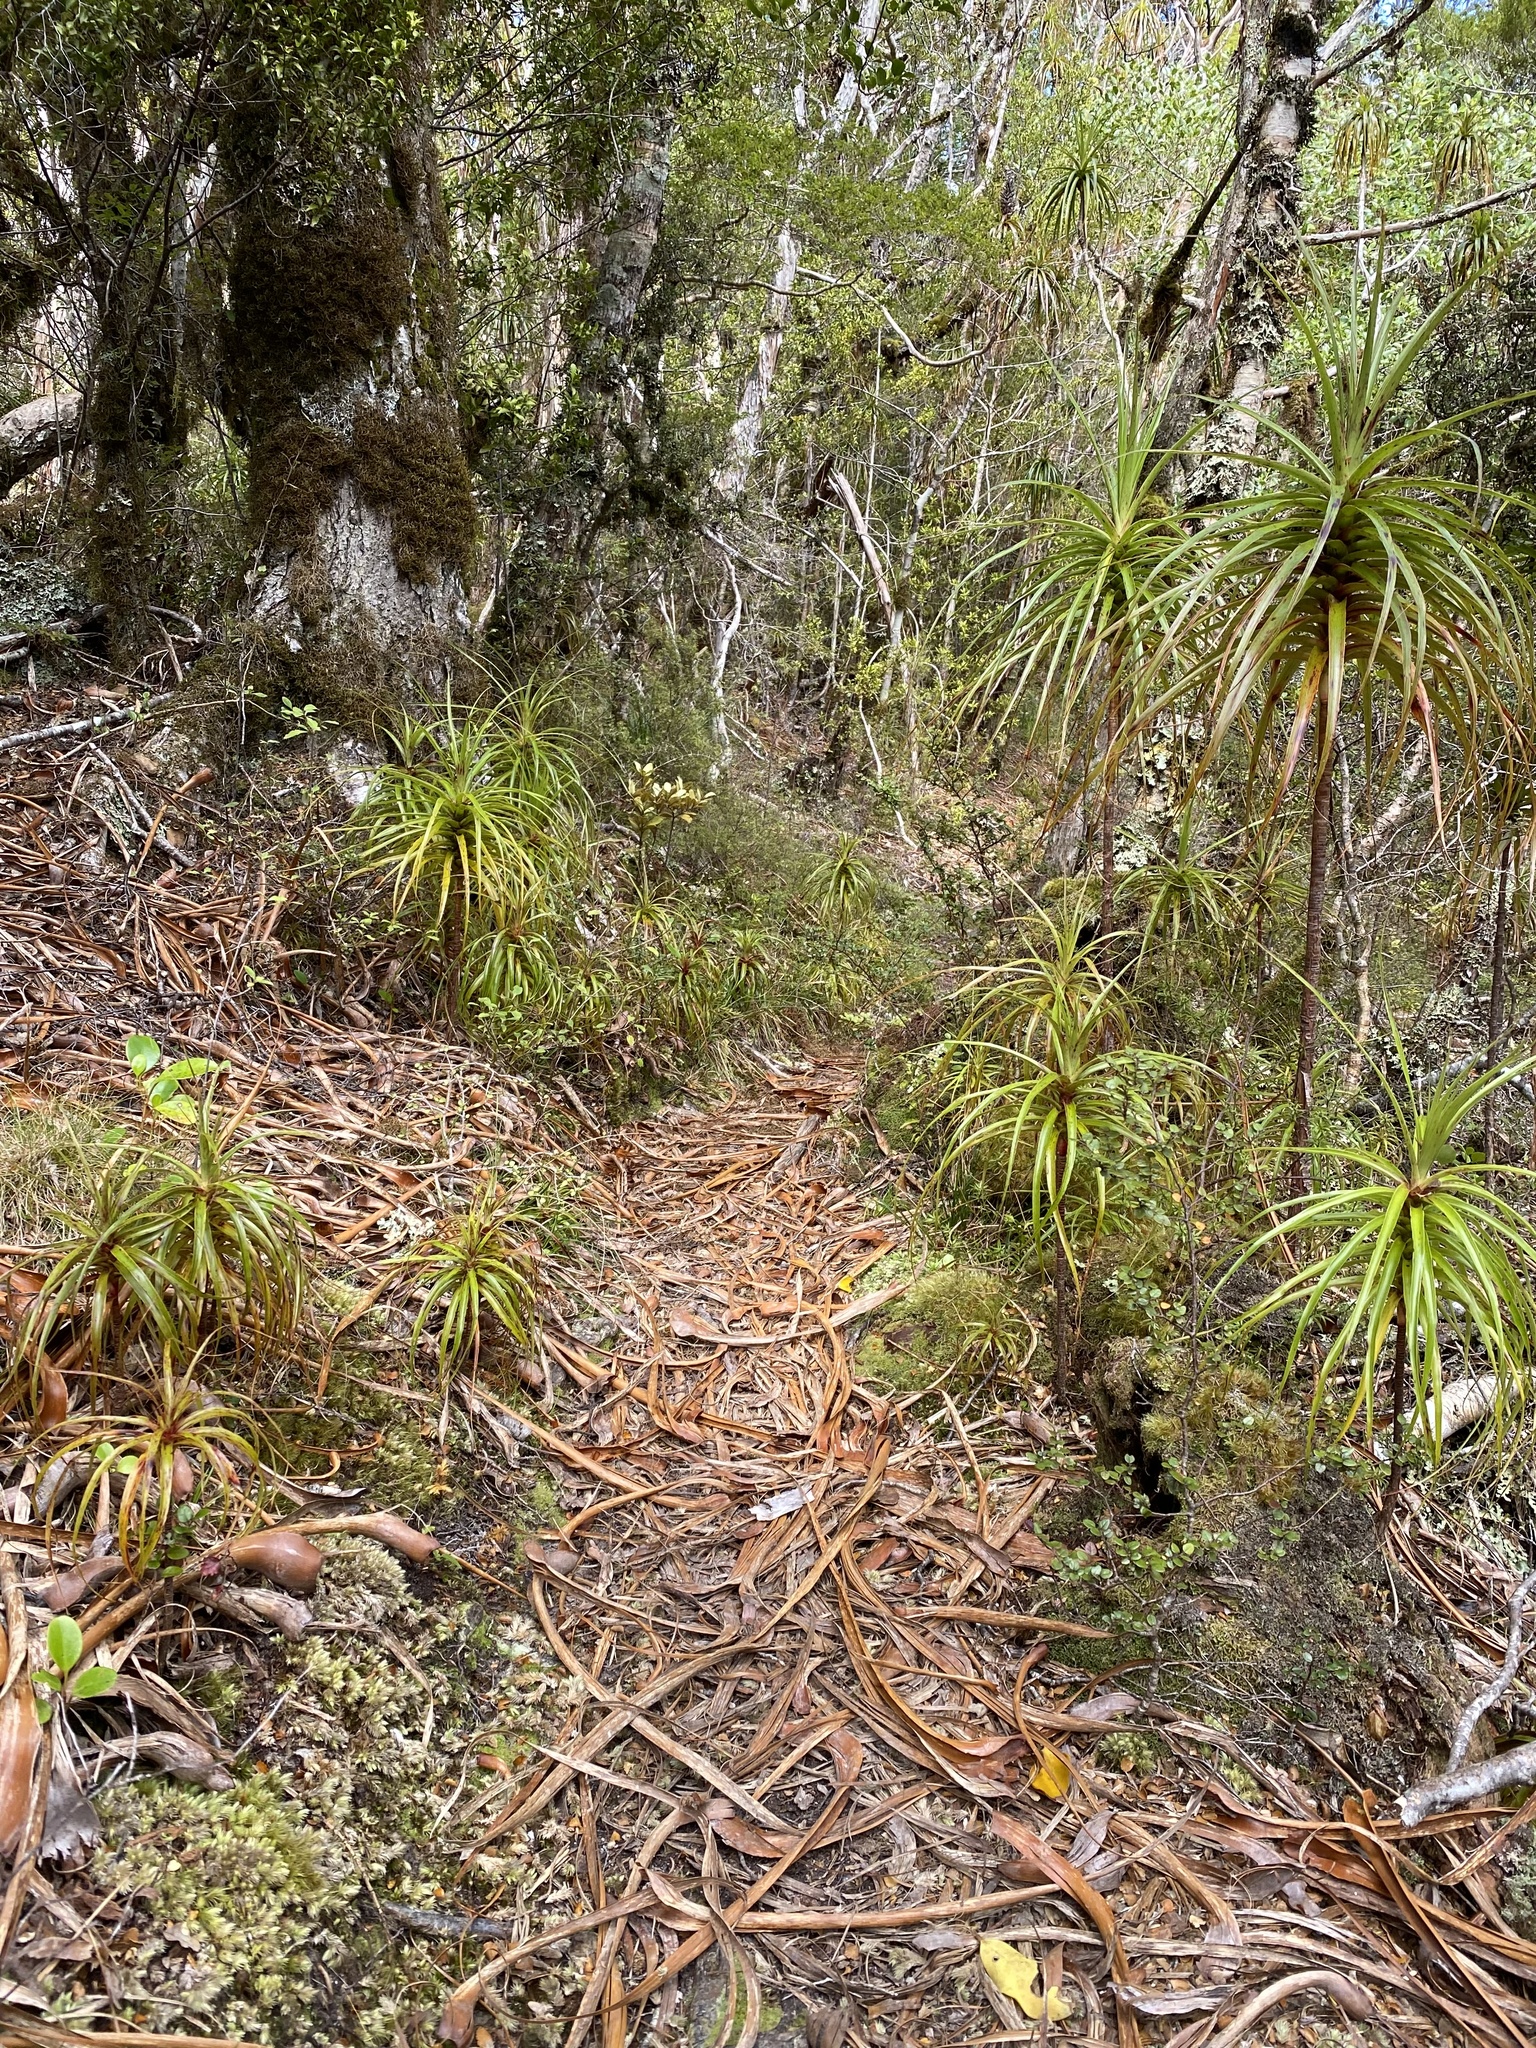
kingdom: Plantae
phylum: Tracheophyta
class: Magnoliopsida
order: Ericales
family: Ericaceae
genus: Dracophyllum
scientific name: Dracophyllum traversii
